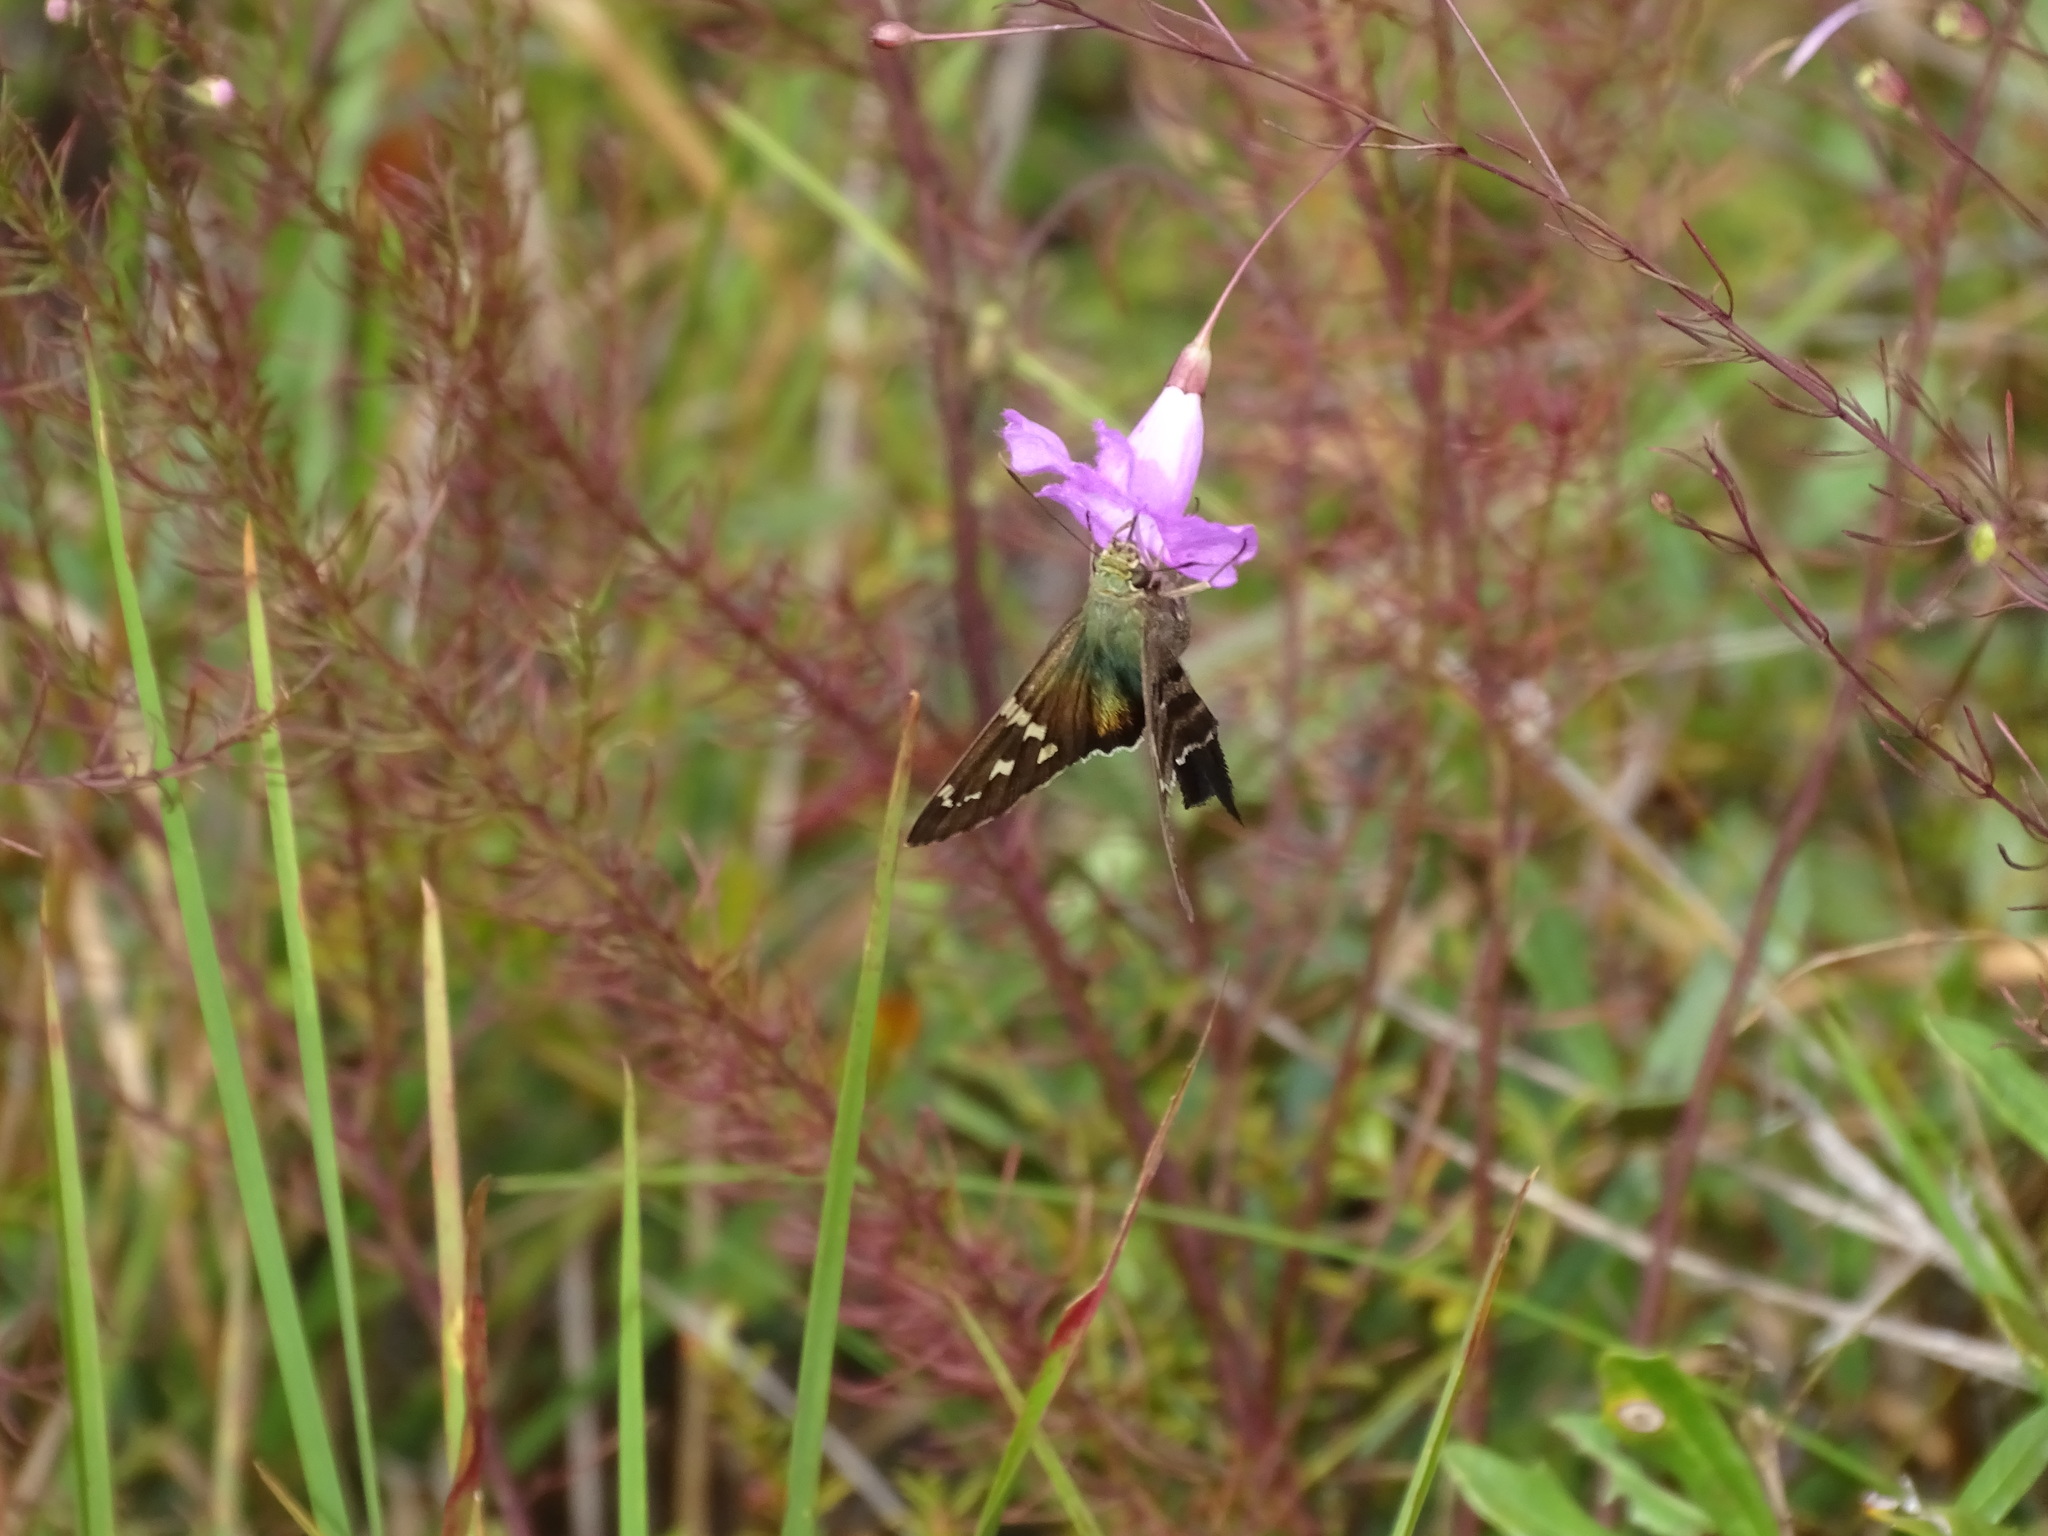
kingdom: Animalia
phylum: Arthropoda
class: Insecta
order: Lepidoptera
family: Hesperiidae
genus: Urbanus
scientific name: Urbanus proteus
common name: Long-tailed skipper
